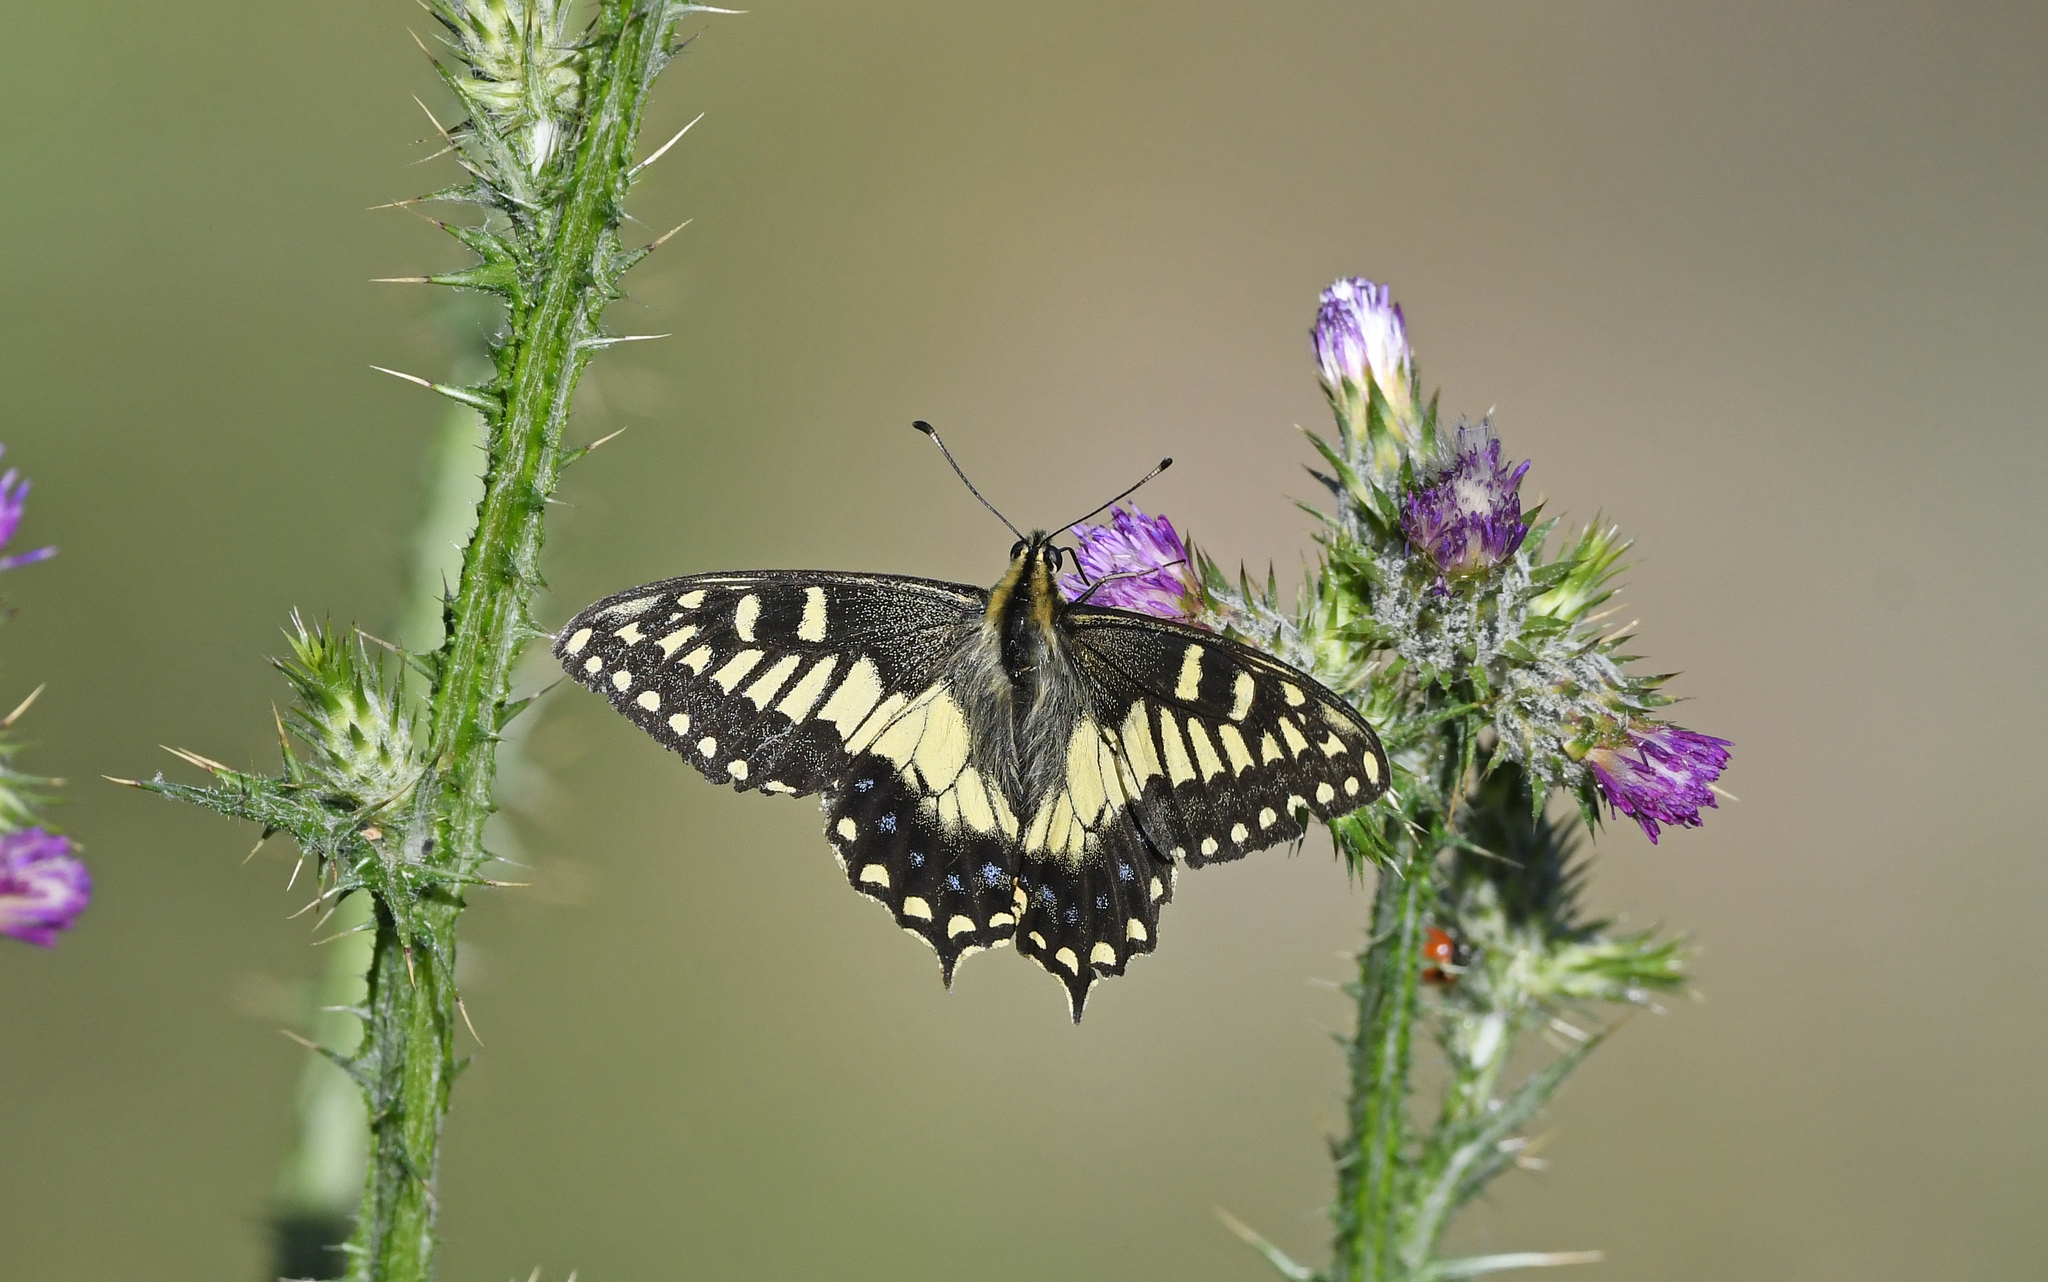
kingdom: Animalia
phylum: Arthropoda
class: Insecta
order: Lepidoptera
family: Papilionidae
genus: Papilio
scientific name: Papilio hospiton
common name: Corsican swallowtail
